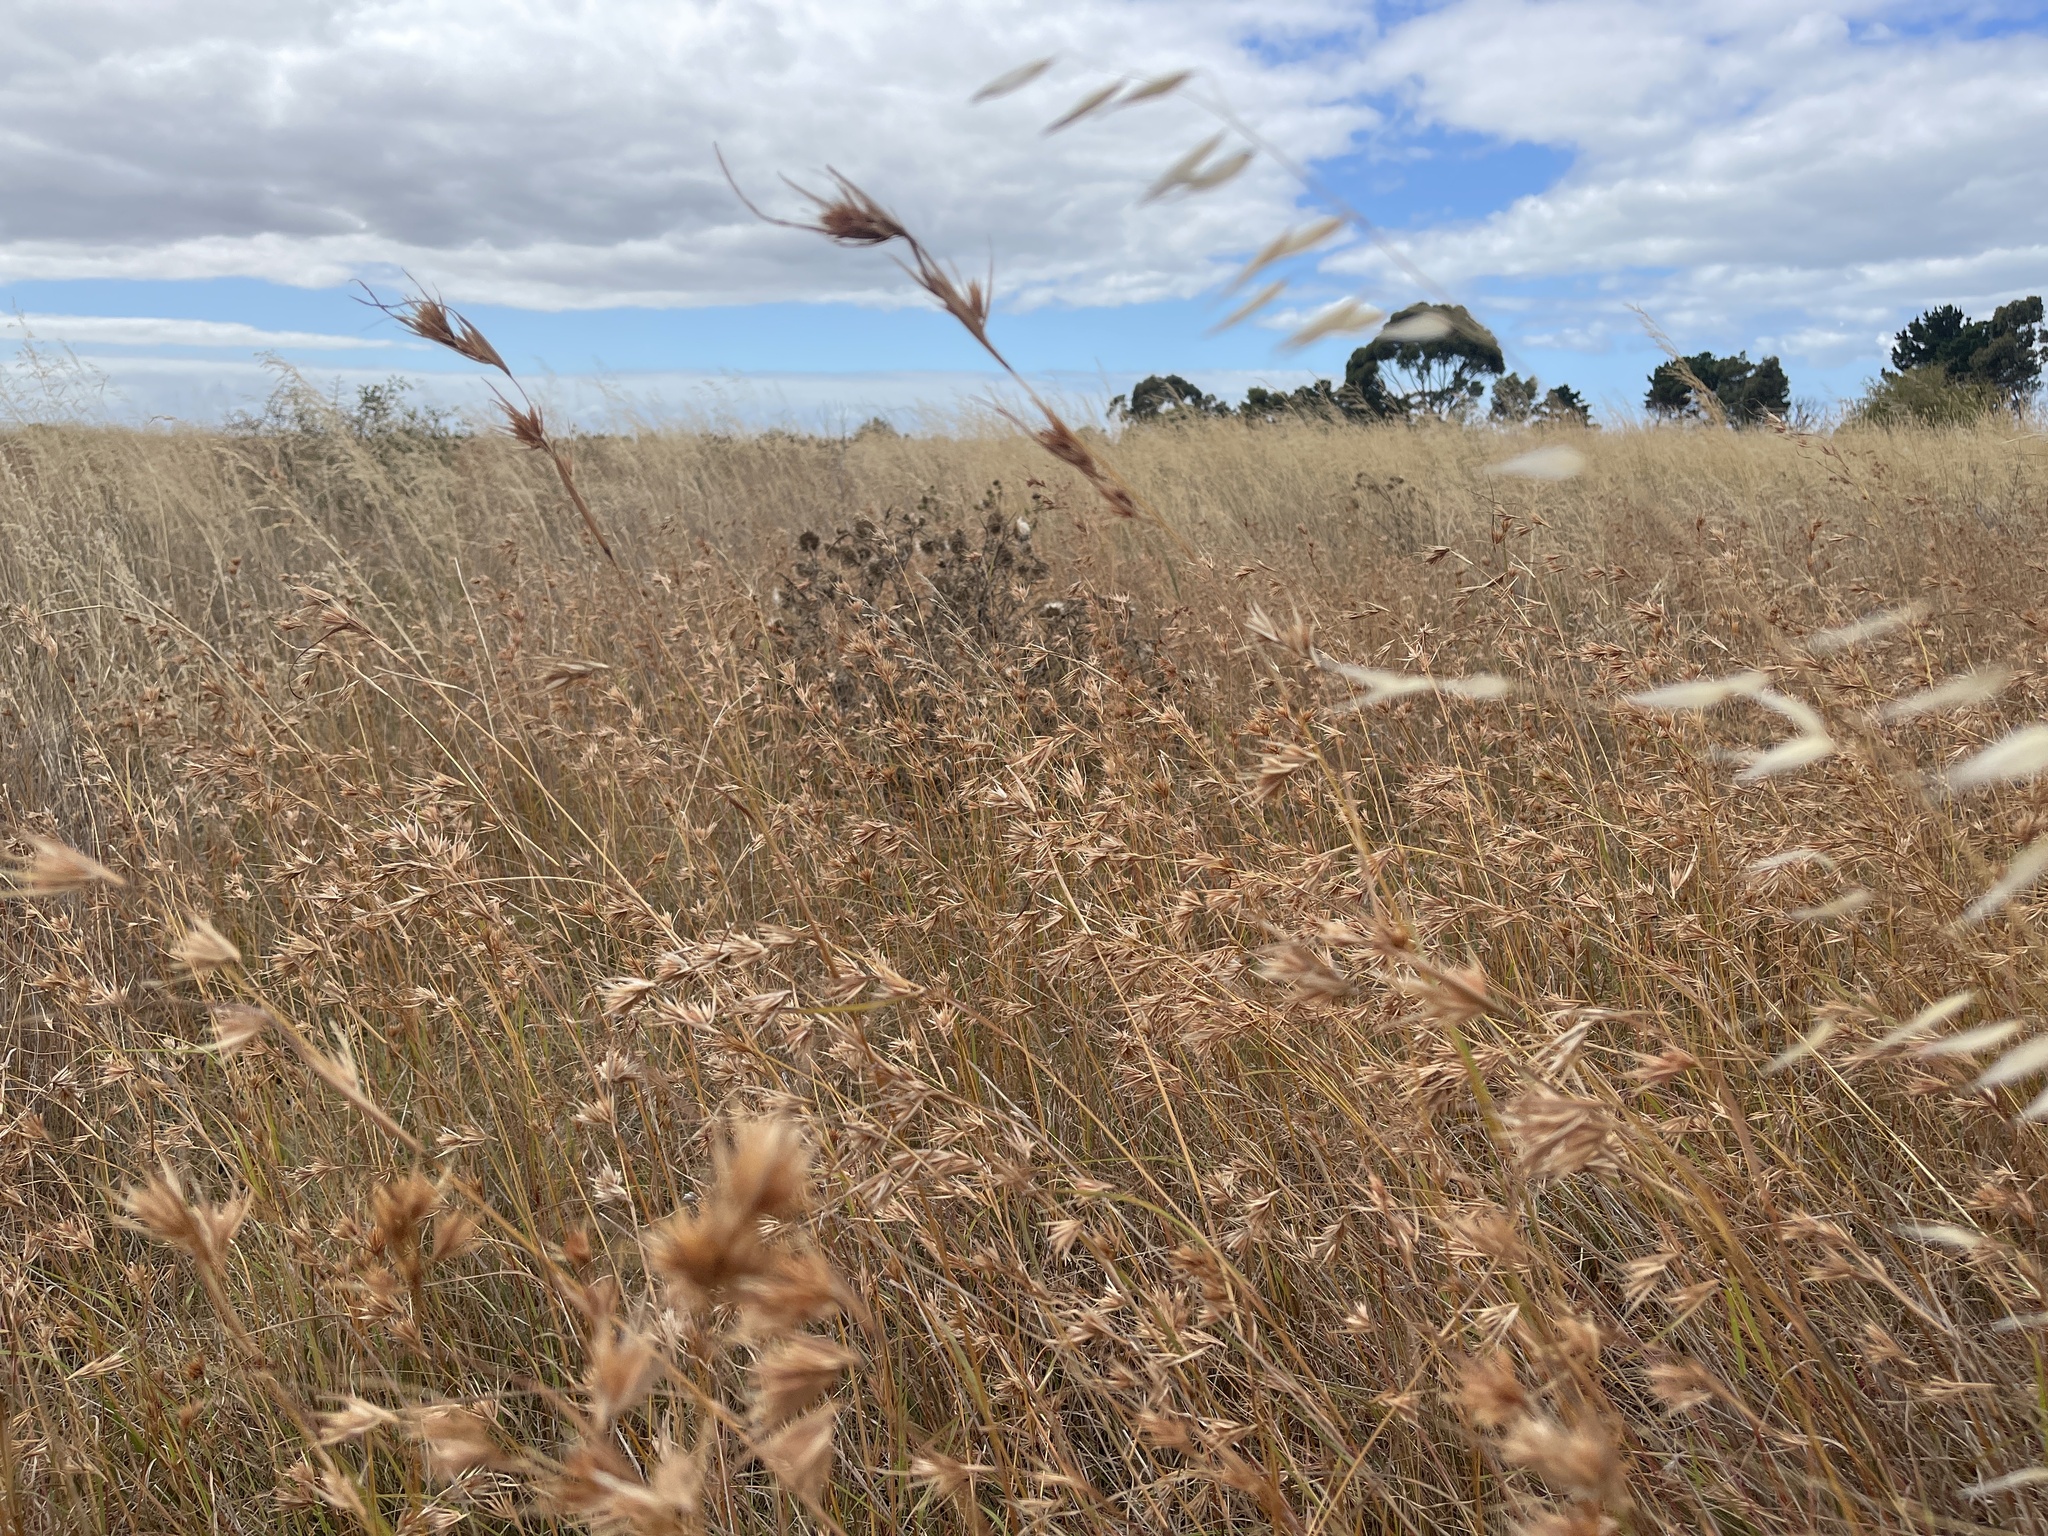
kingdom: Plantae
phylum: Tracheophyta
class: Liliopsida
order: Poales
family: Poaceae
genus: Themeda
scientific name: Themeda triandra
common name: Kangaroo grass
